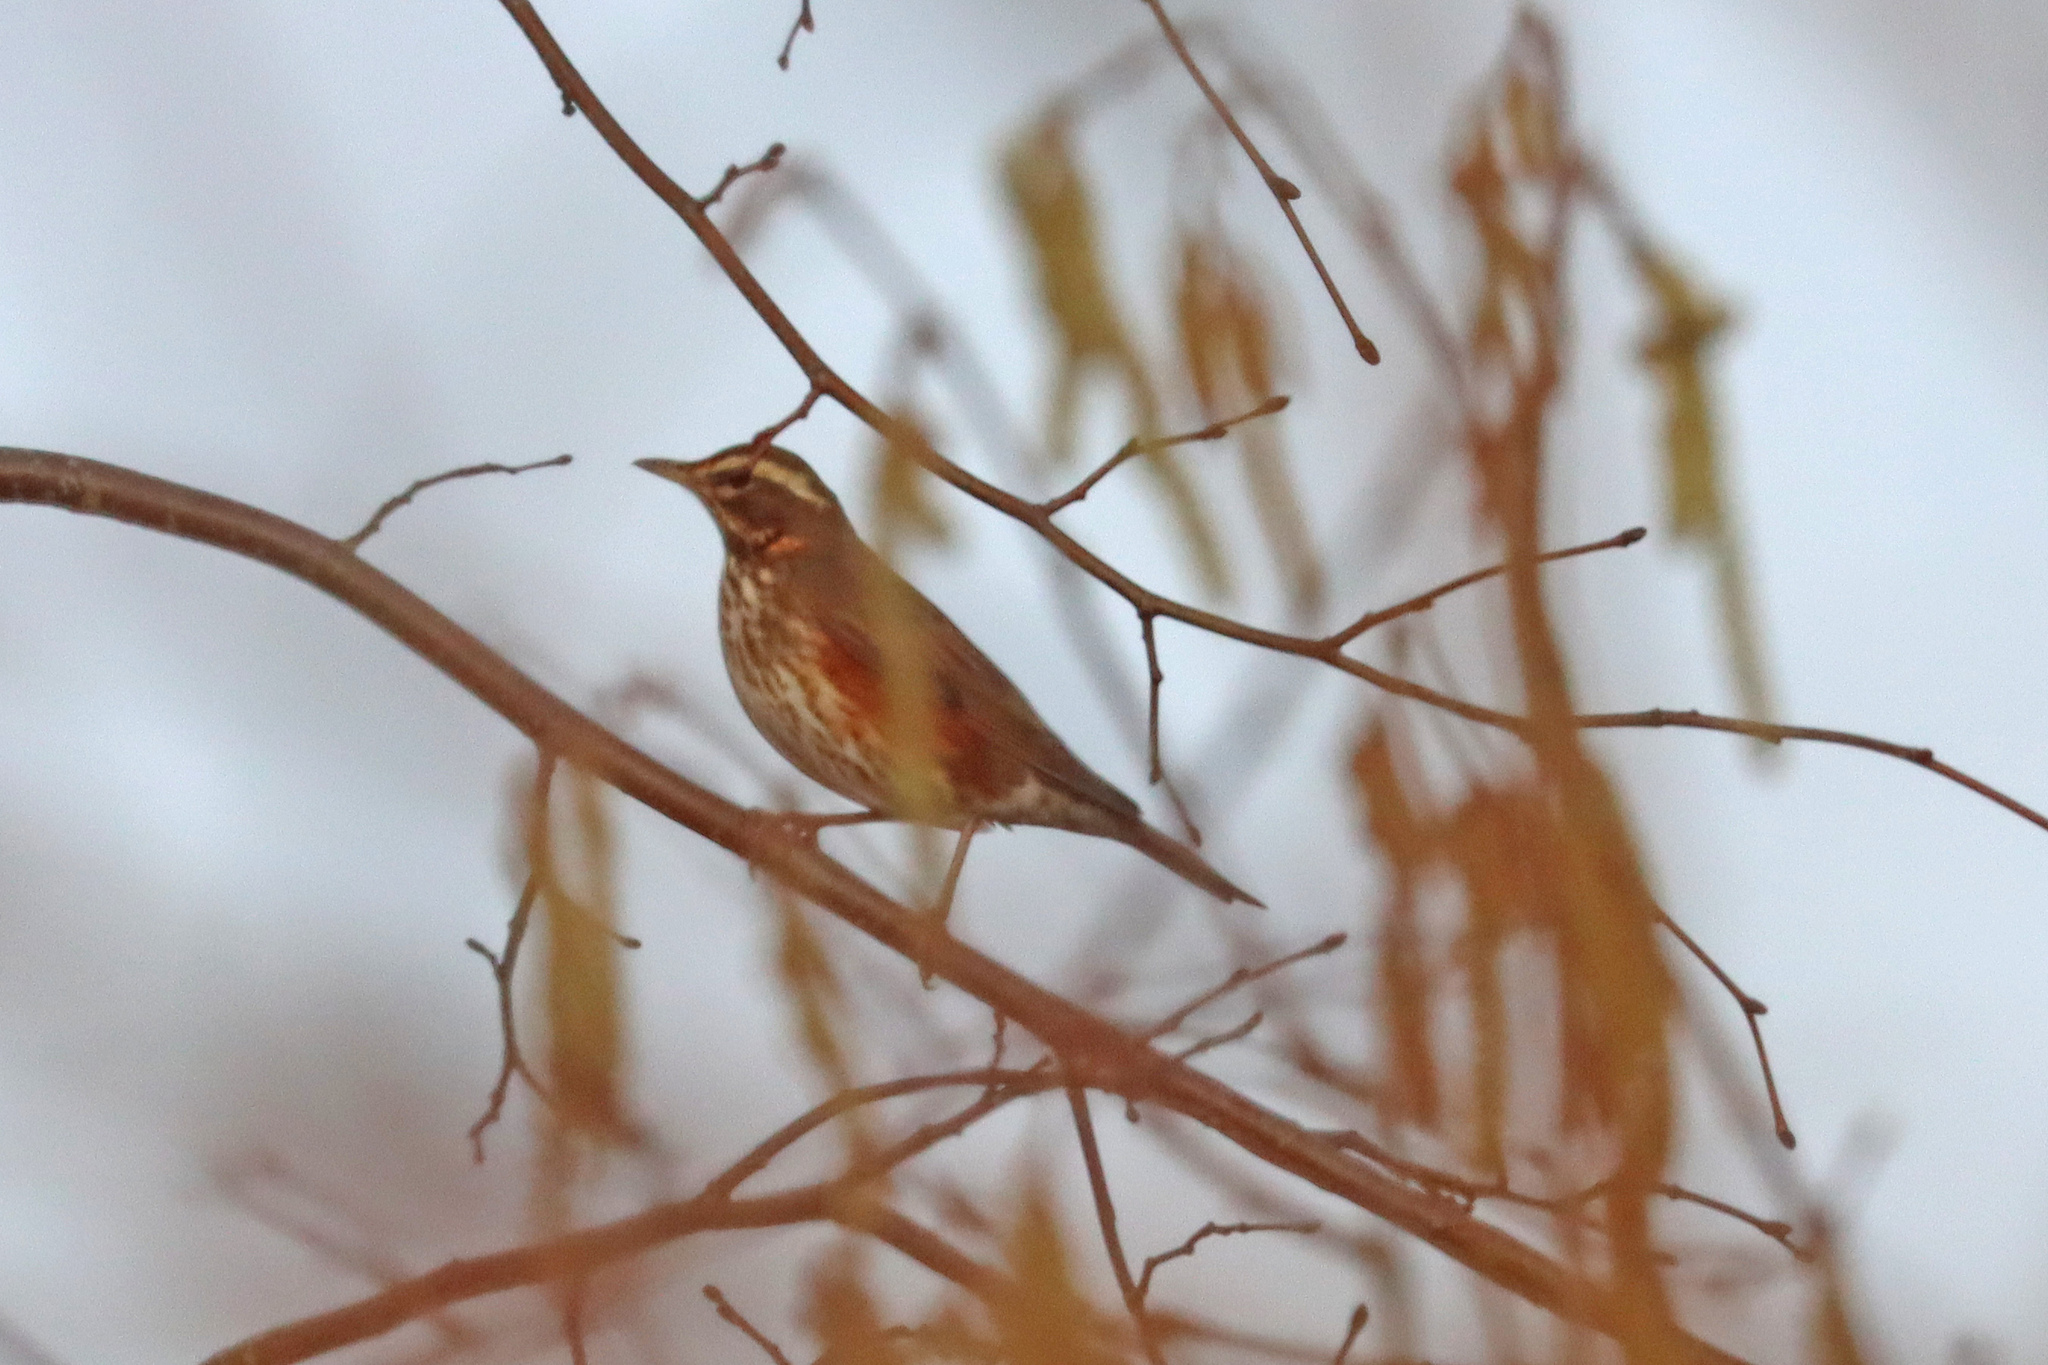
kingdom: Animalia
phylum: Chordata
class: Aves
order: Passeriformes
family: Turdidae
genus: Turdus
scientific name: Turdus iliacus
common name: Redwing
